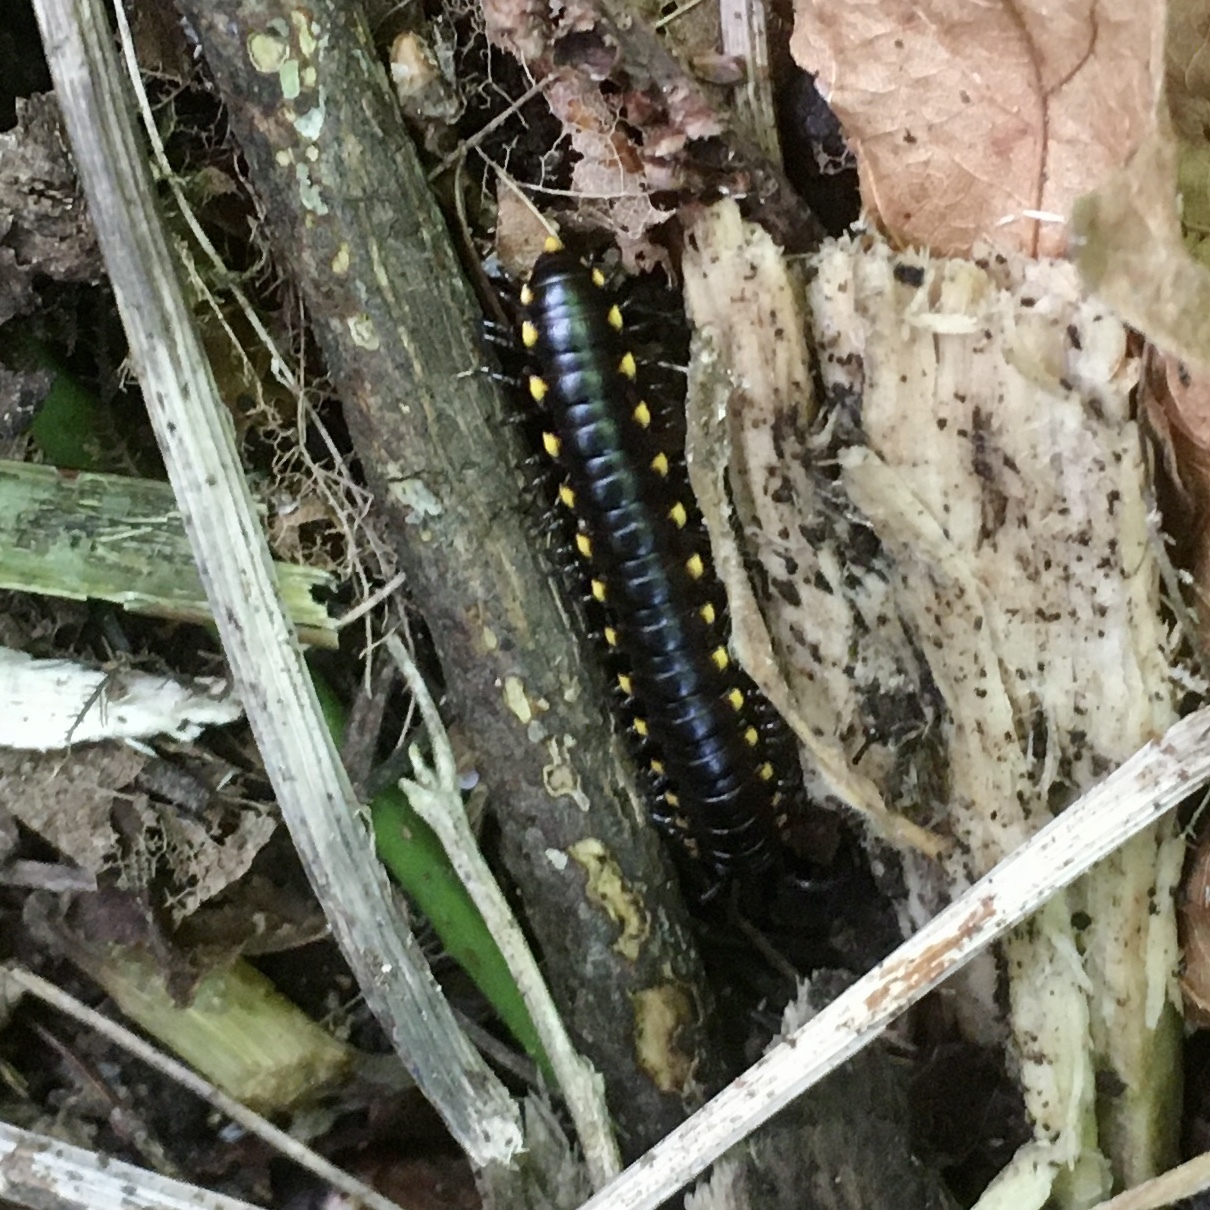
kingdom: Animalia
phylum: Arthropoda
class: Diplopoda
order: Polydesmida
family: Xystodesmidae
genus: Harpaphe
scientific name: Harpaphe haydeniana
